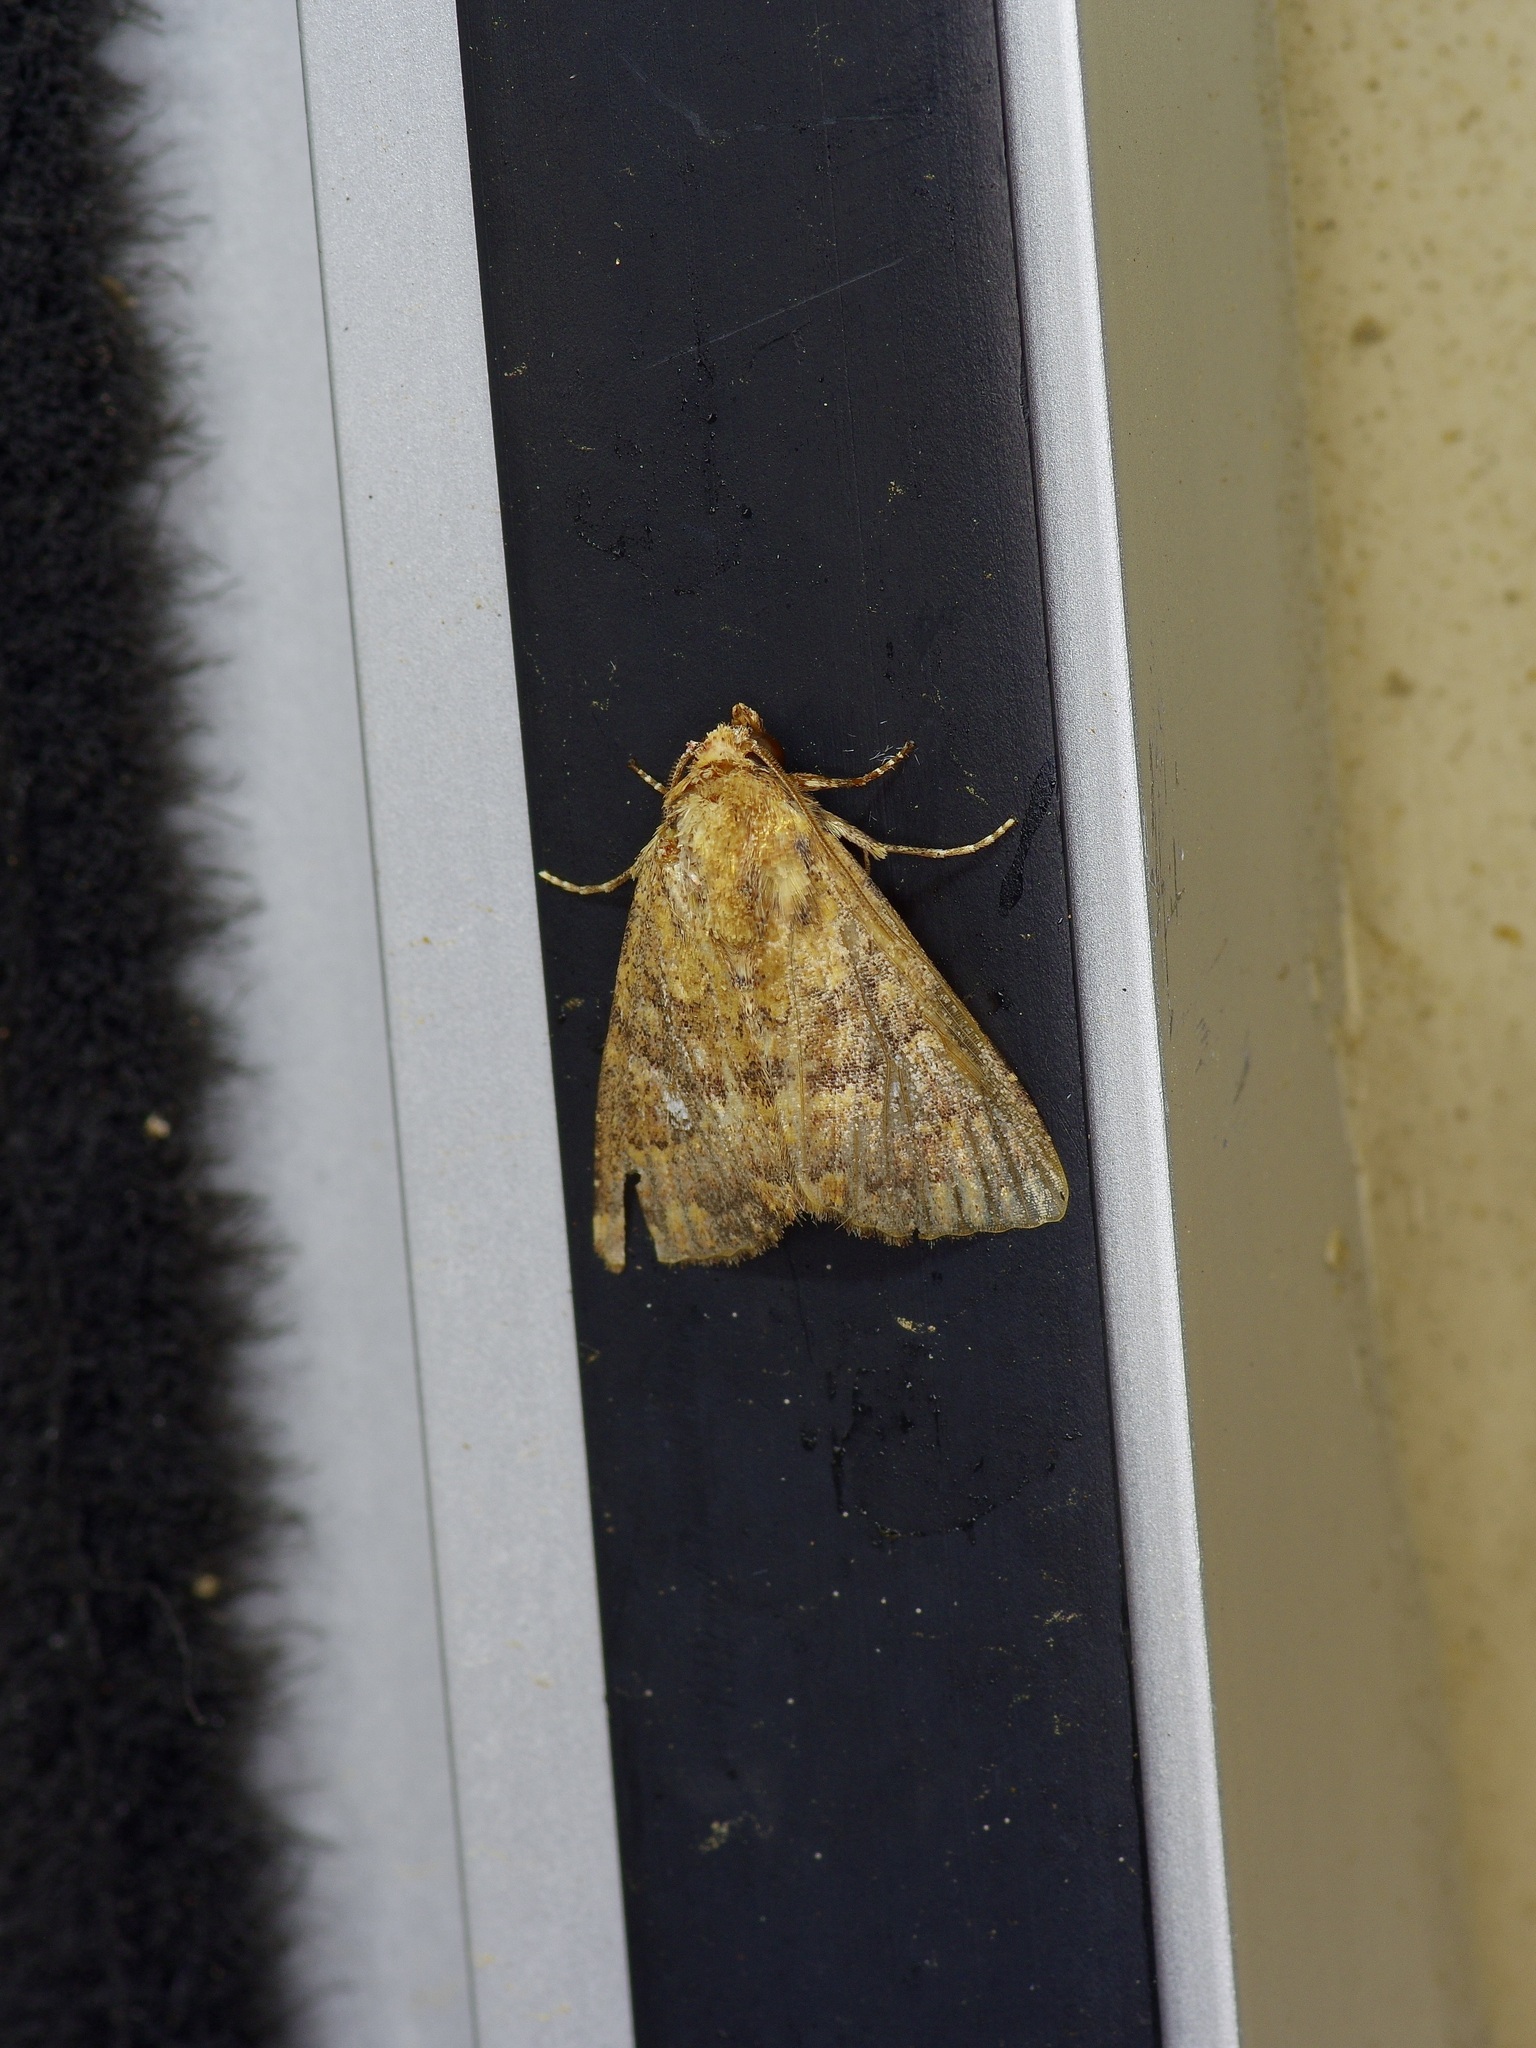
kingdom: Animalia
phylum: Arthropoda
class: Insecta
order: Lepidoptera
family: Noctuidae
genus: Condica
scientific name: Condica mobilis
